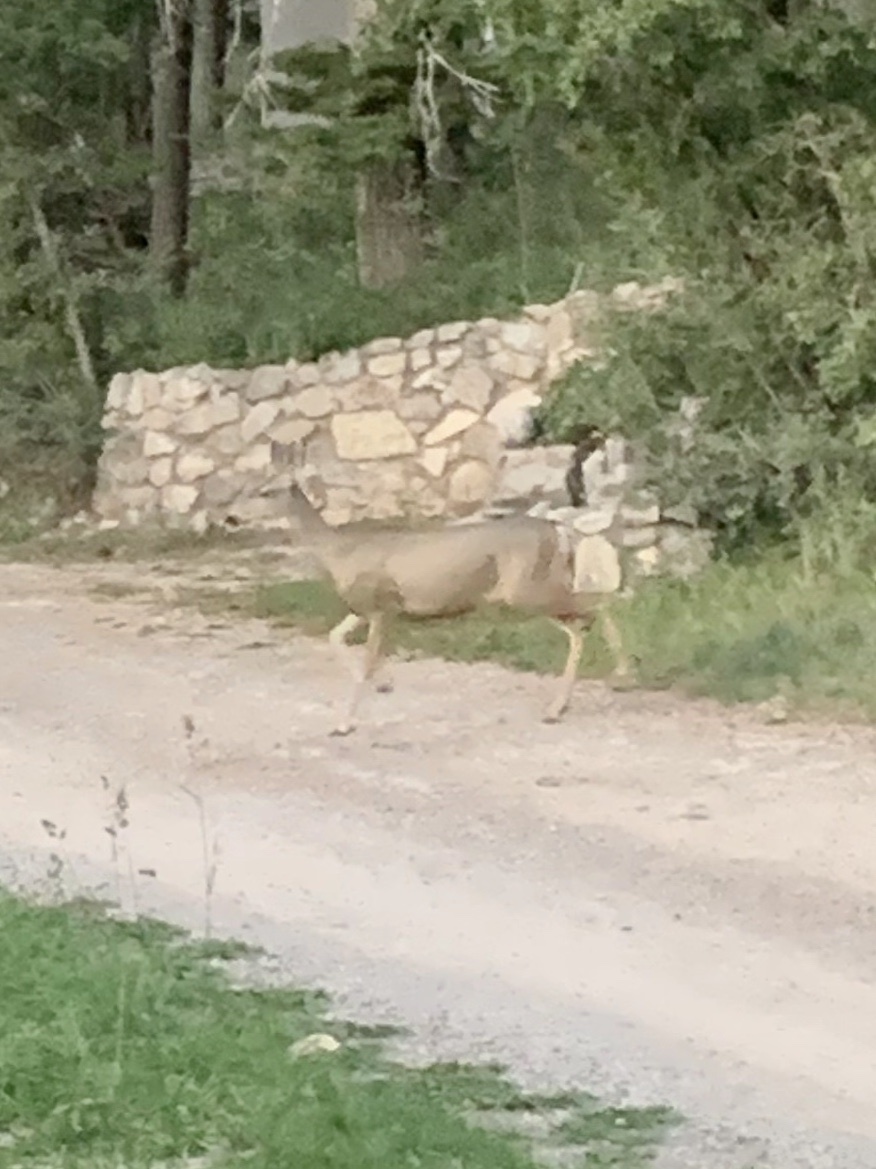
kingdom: Animalia
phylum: Chordata
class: Mammalia
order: Artiodactyla
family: Cervidae
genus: Odocoileus
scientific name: Odocoileus hemionus
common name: Mule deer
